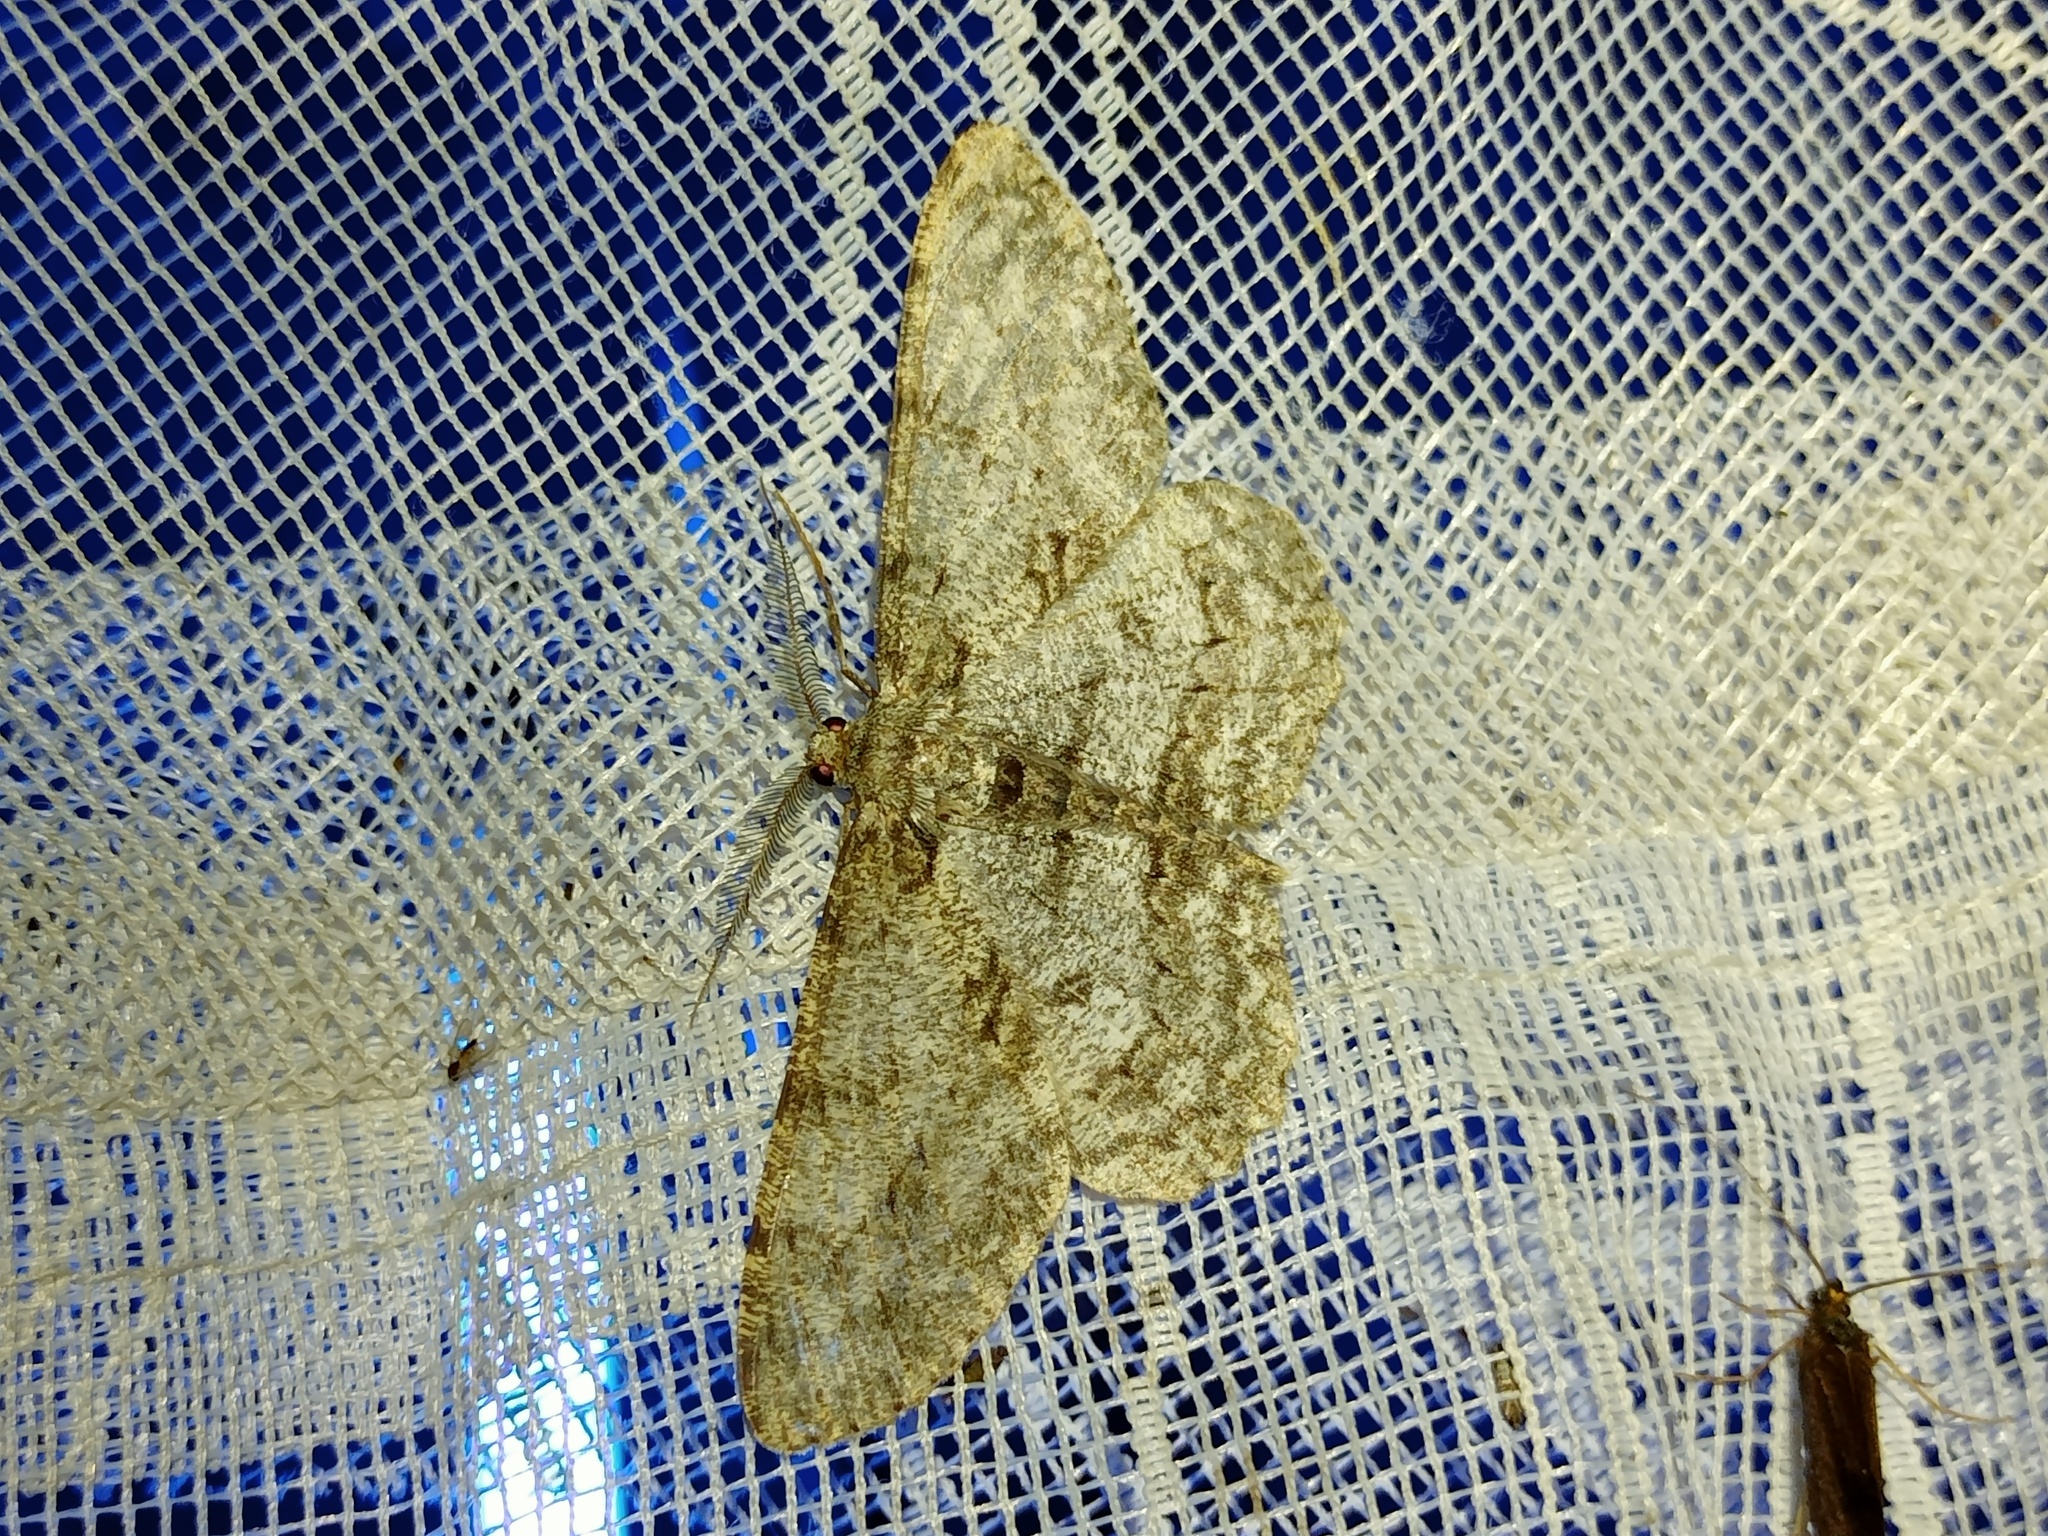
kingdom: Animalia
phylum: Arthropoda
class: Insecta
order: Lepidoptera
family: Geometridae
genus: Hypomecis
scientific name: Hypomecis punctinalis
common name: Pale oak beauty
